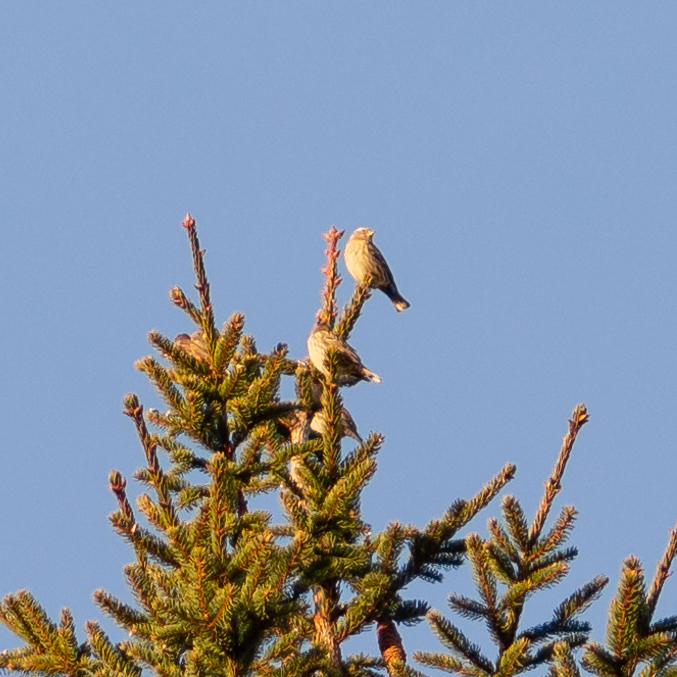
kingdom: Animalia
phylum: Chordata
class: Aves
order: Passeriformes
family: Passeridae
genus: Petronia
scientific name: Petronia petronia
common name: Rock sparrow
